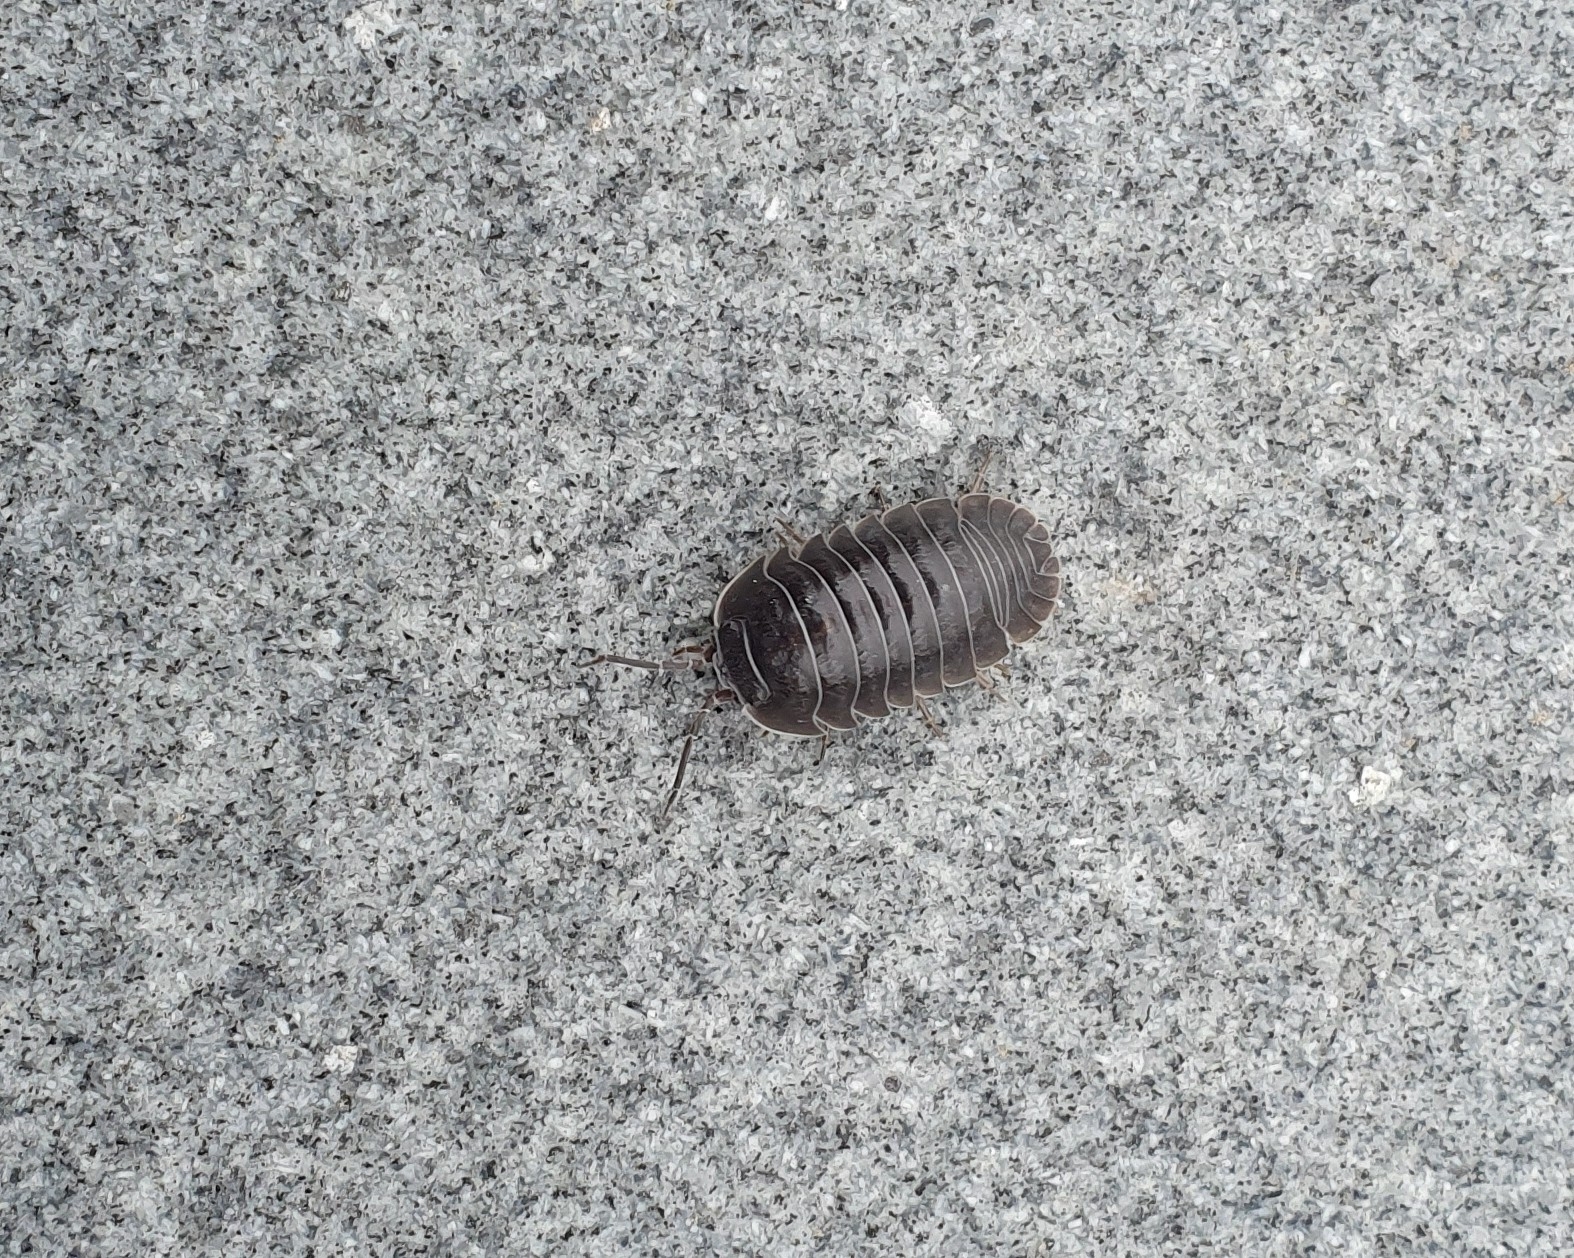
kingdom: Animalia
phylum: Arthropoda
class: Malacostraca
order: Isopoda
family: Armadillidiidae
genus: Armadillidium
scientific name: Armadillidium depressum
